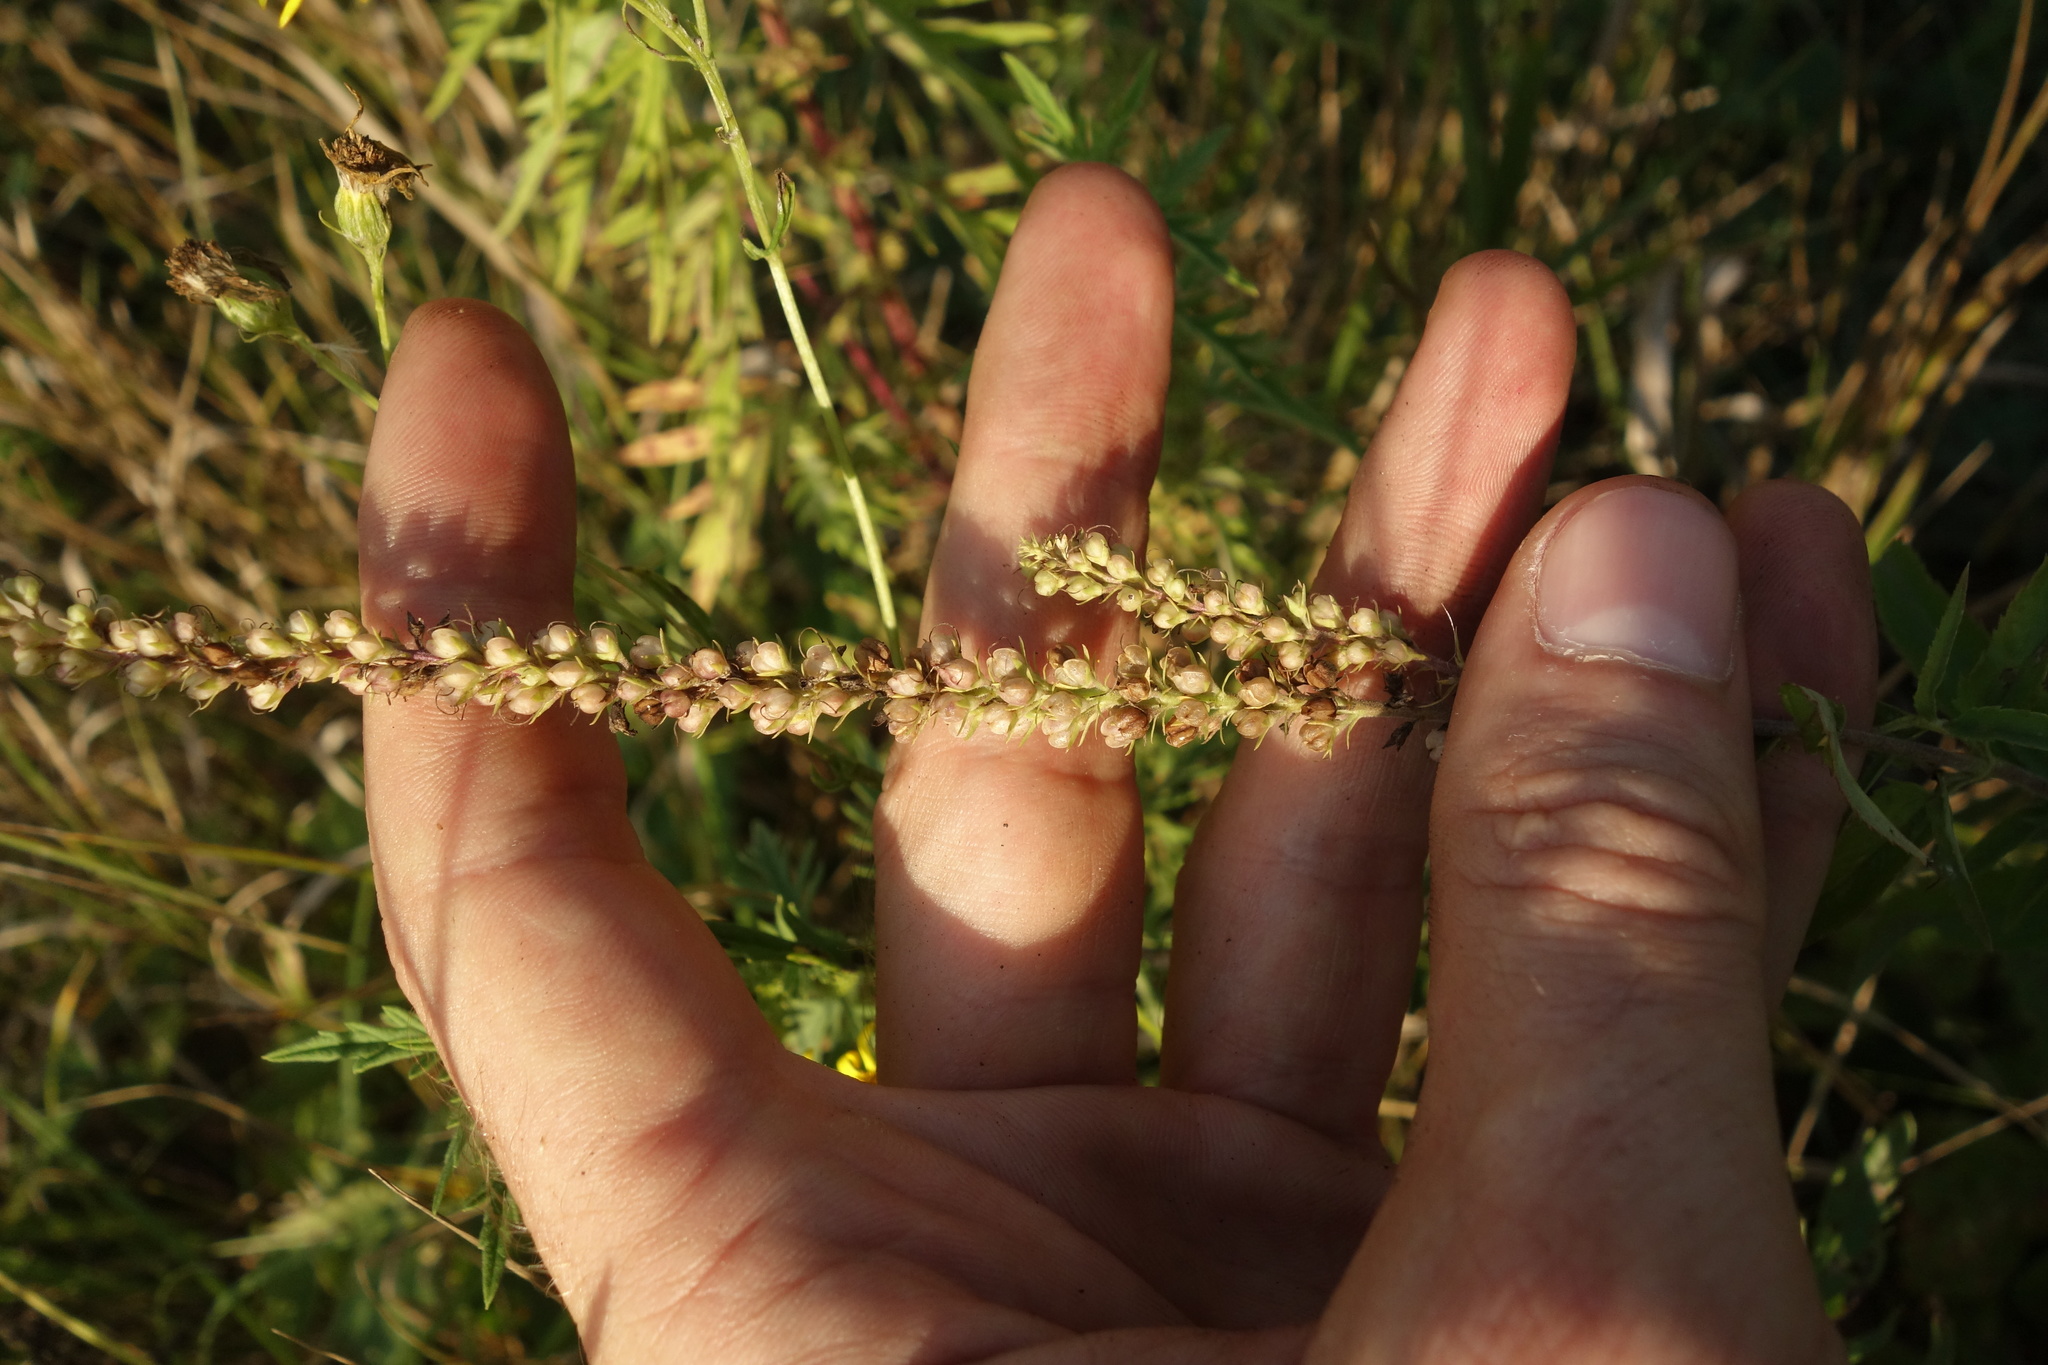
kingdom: Plantae
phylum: Tracheophyta
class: Magnoliopsida
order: Lamiales
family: Plantaginaceae
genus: Veronica
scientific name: Veronica longifolia
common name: Garden speedwell
